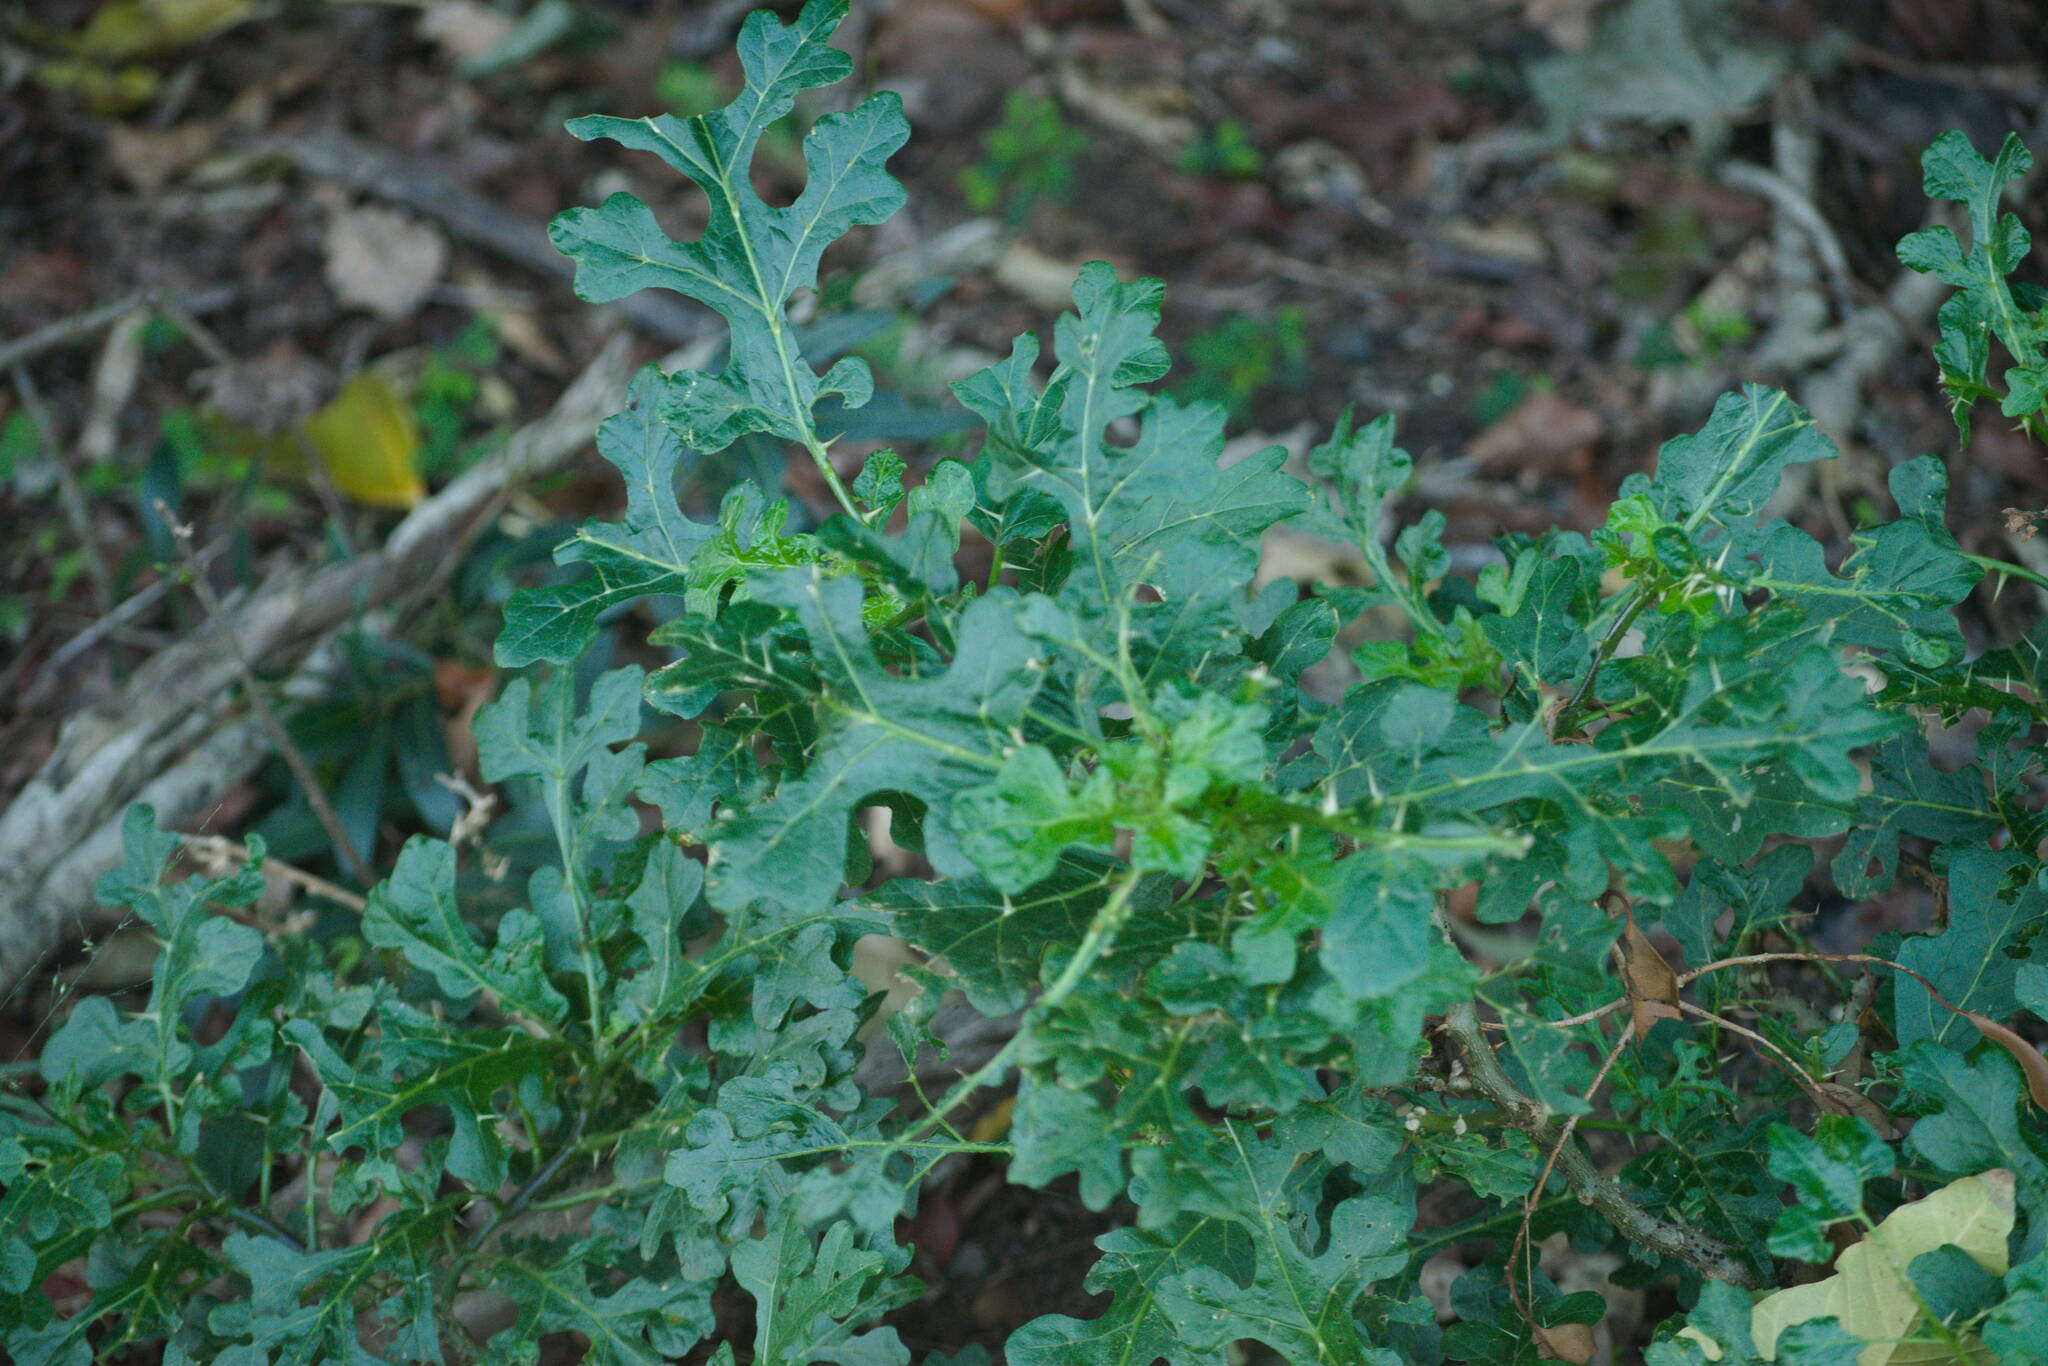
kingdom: Plantae
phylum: Tracheophyta
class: Magnoliopsida
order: Solanales
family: Solanaceae
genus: Solanum
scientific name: Solanum linnaeanum
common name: Nightshade
